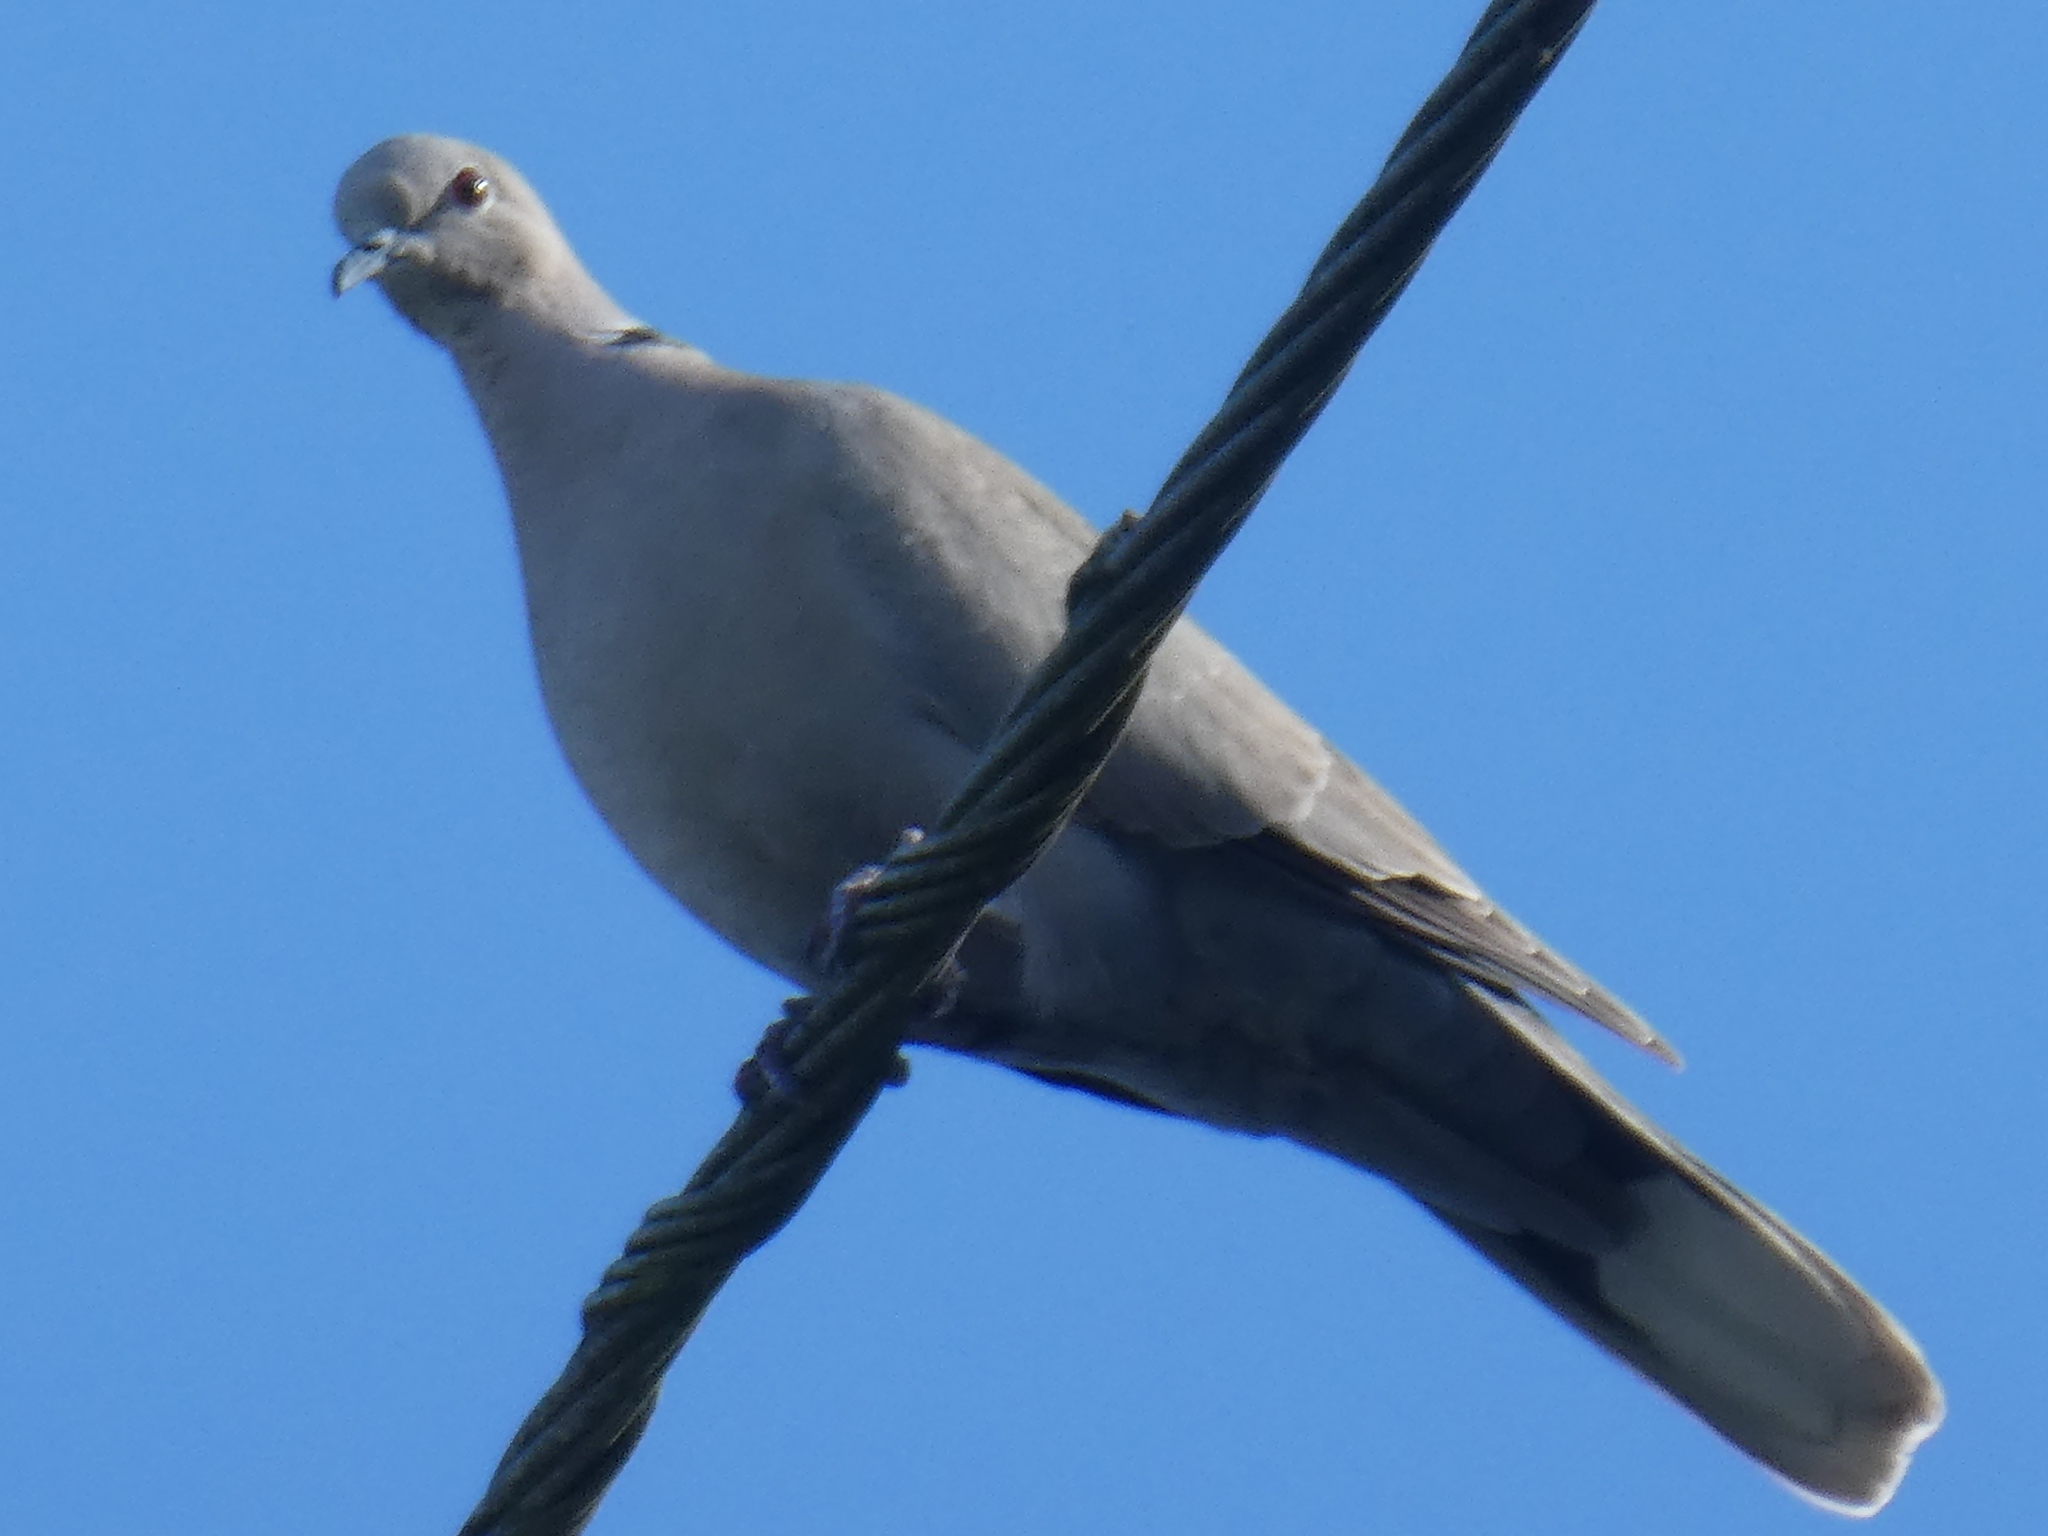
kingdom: Animalia
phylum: Chordata
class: Aves
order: Columbiformes
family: Columbidae
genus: Streptopelia
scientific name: Streptopelia decaocto
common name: Eurasian collared dove
